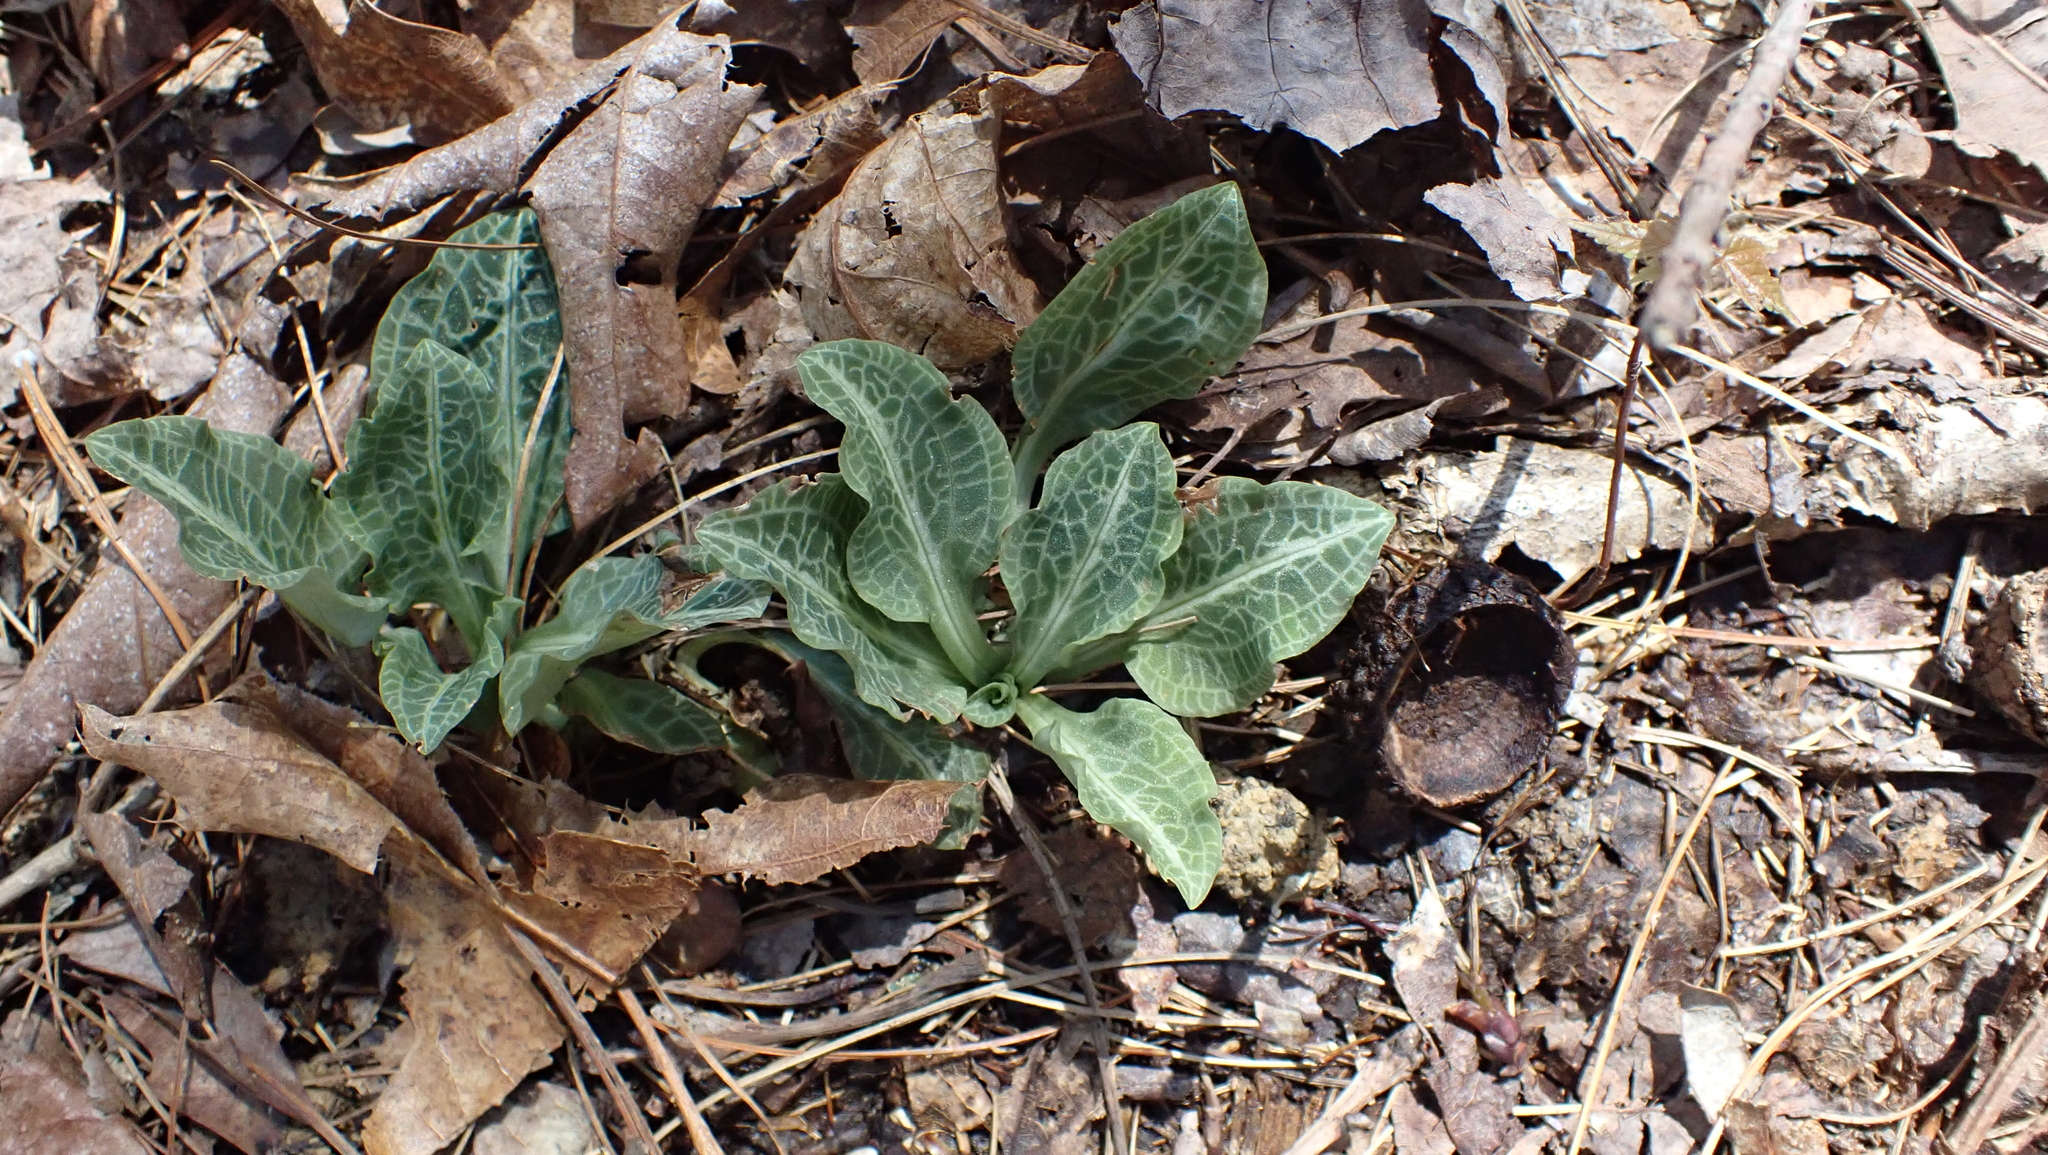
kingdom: Plantae
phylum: Tracheophyta
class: Liliopsida
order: Asparagales
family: Orchidaceae
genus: Goodyera
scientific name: Goodyera pubescens
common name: Downy rattlesnake-plantain
